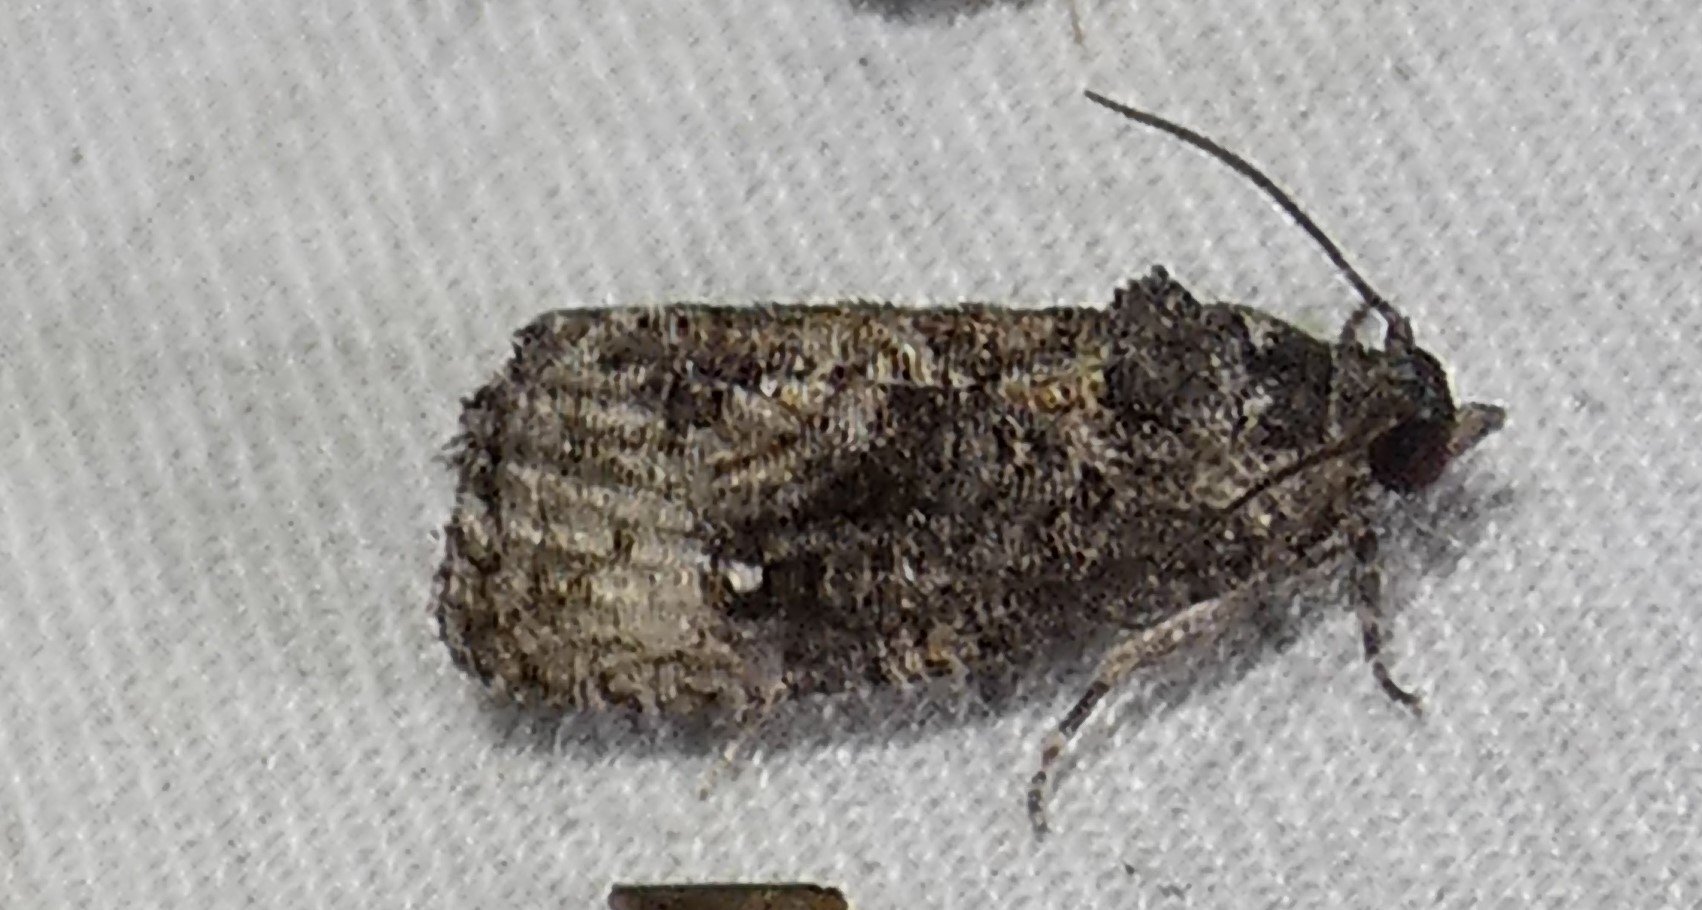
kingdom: Animalia
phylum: Arthropoda
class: Insecta
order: Lepidoptera
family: Tortricidae
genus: Gymnandrosoma
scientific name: Gymnandrosoma punctidiscanum
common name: Dotted ecdytolopha moth
